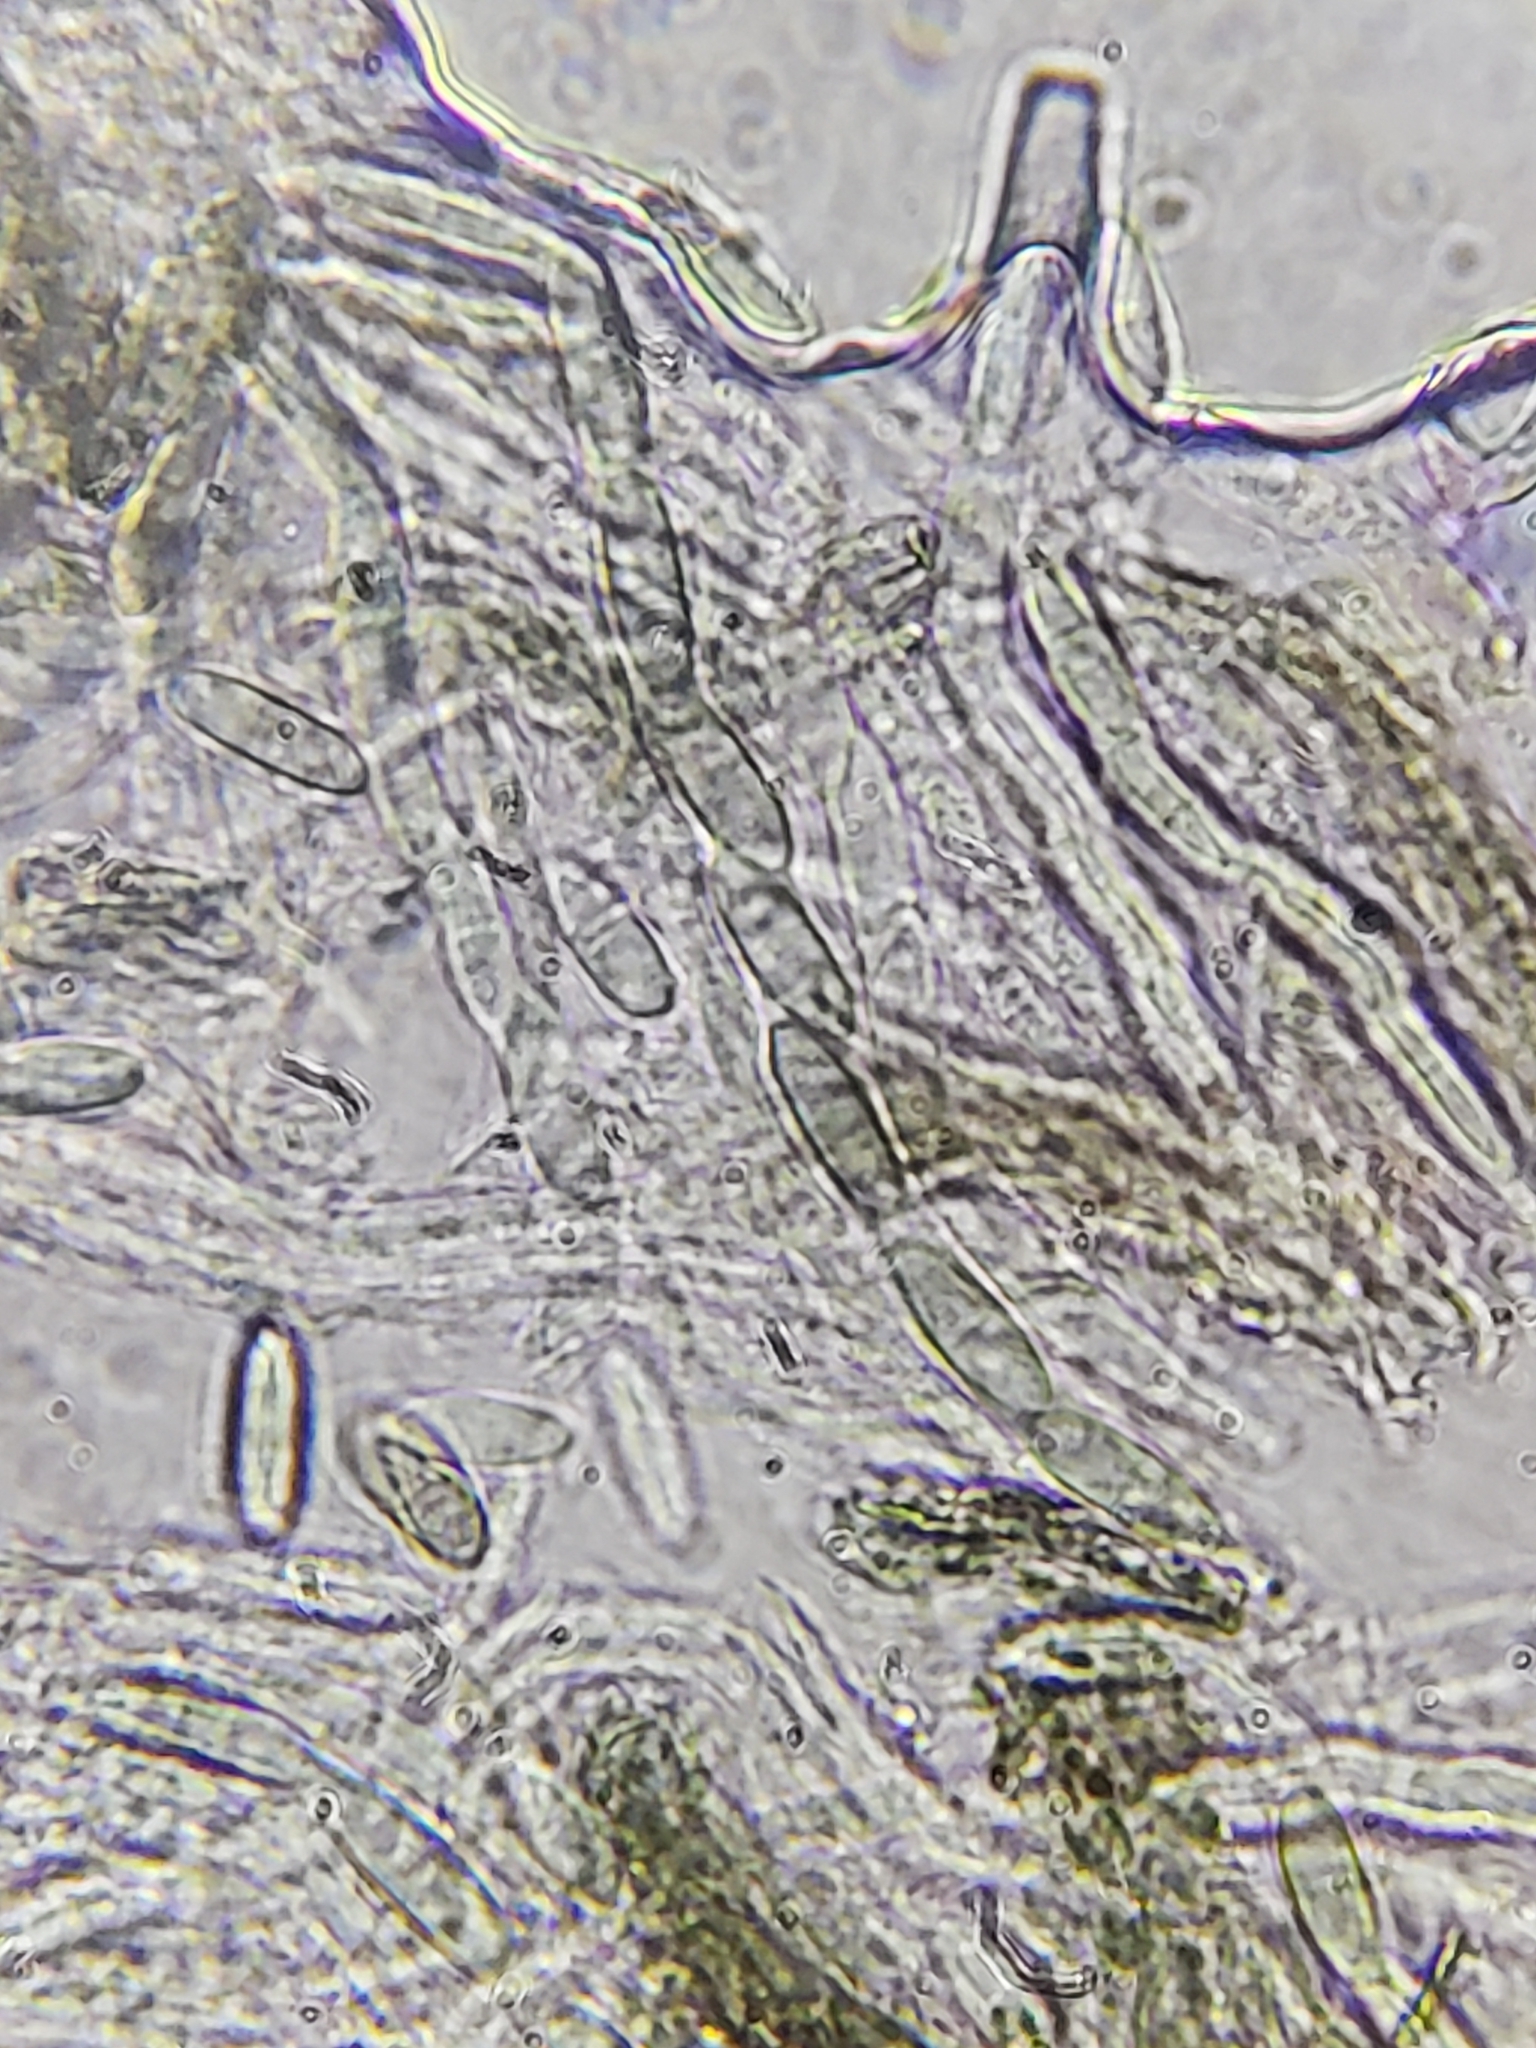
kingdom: Fungi
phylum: Ascomycota
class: Eurotiomycetes
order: Mycocaliciales
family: Mycocaliciaceae
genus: Phaeocalicium
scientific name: Phaeocalicium polyporaeum
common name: Fairy pins
